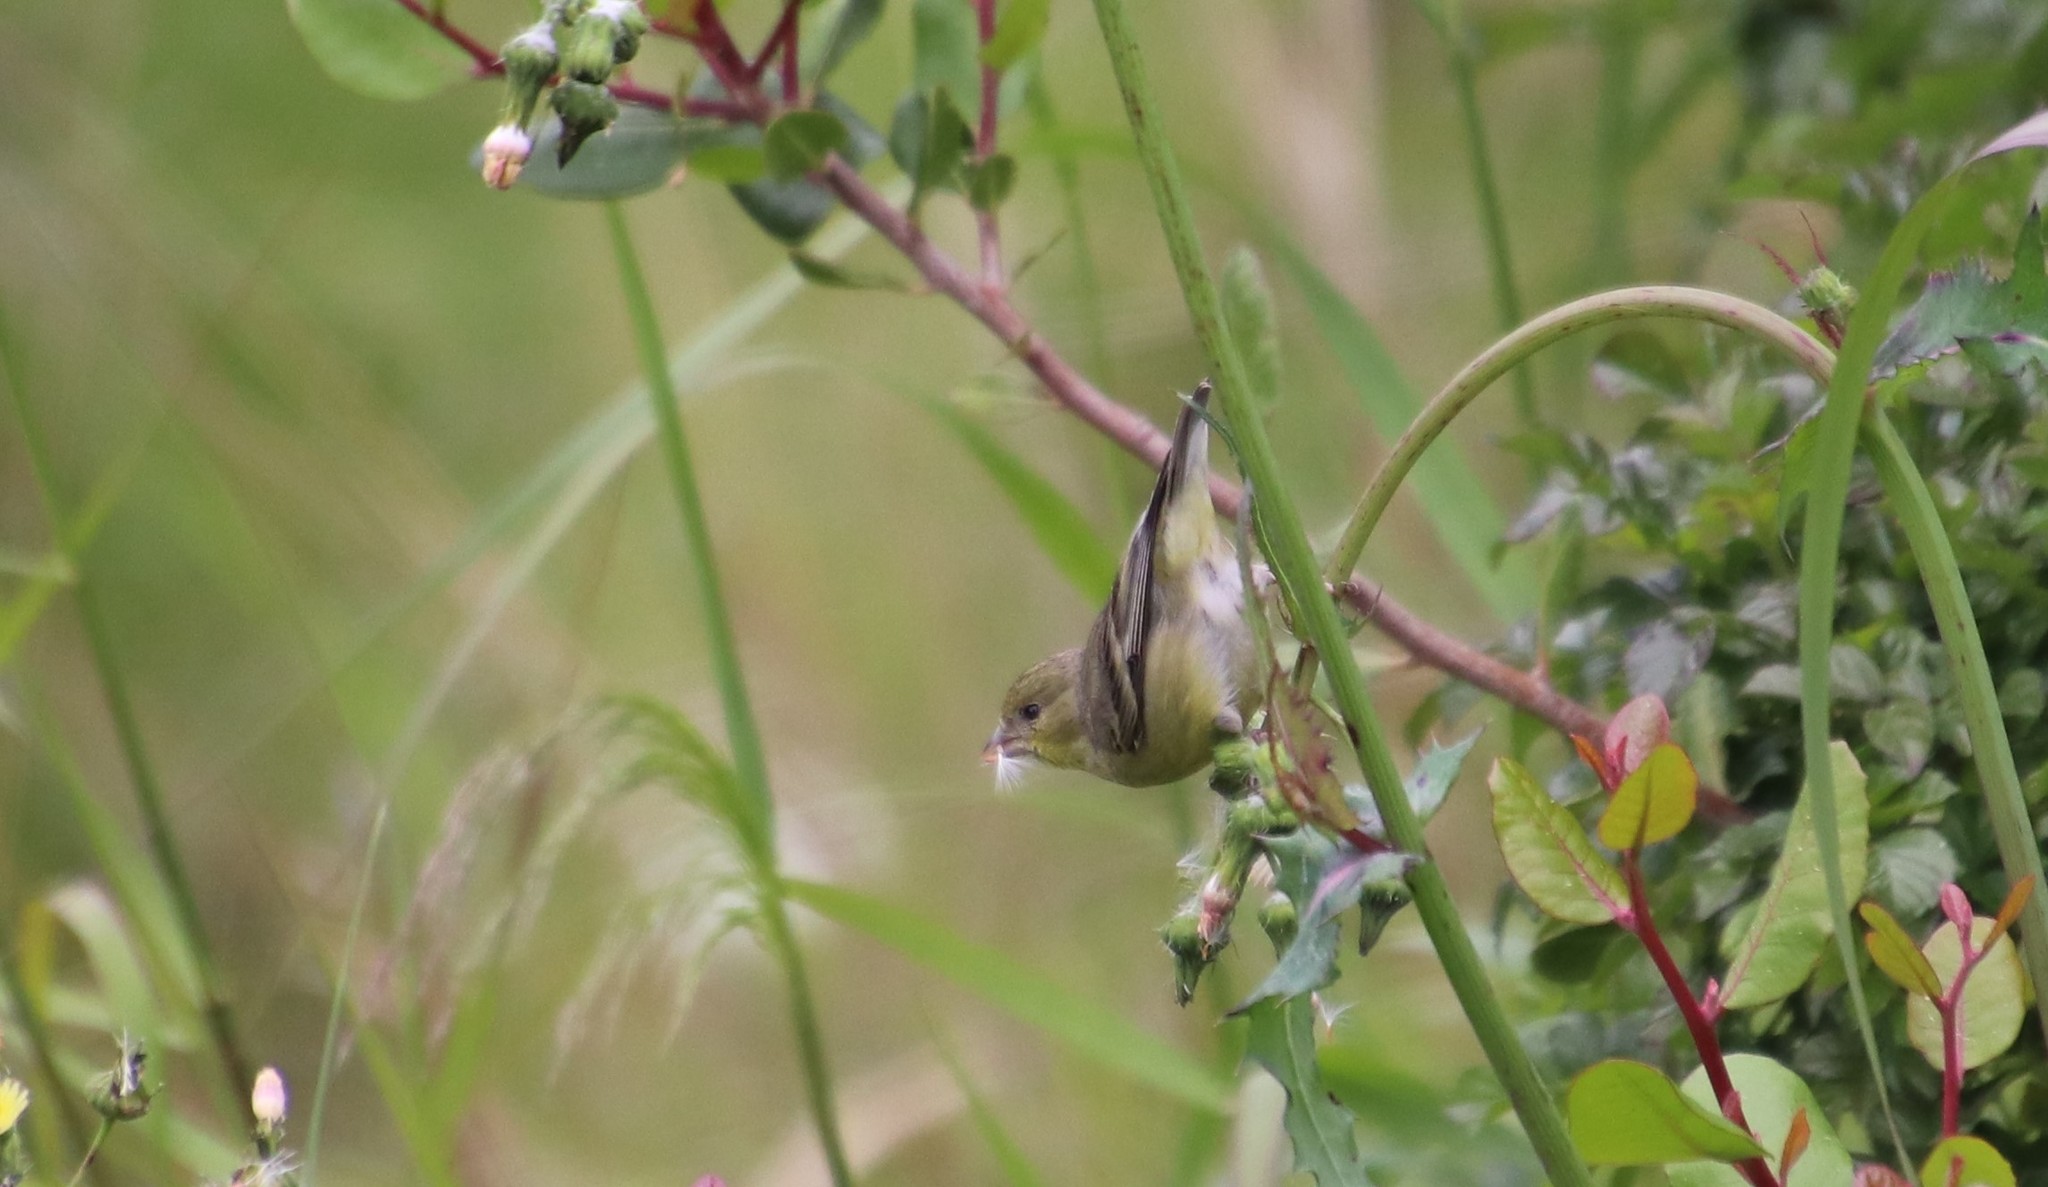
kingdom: Animalia
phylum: Chordata
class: Aves
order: Passeriformes
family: Fringillidae
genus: Spinus
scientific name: Spinus psaltria
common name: Lesser goldfinch
